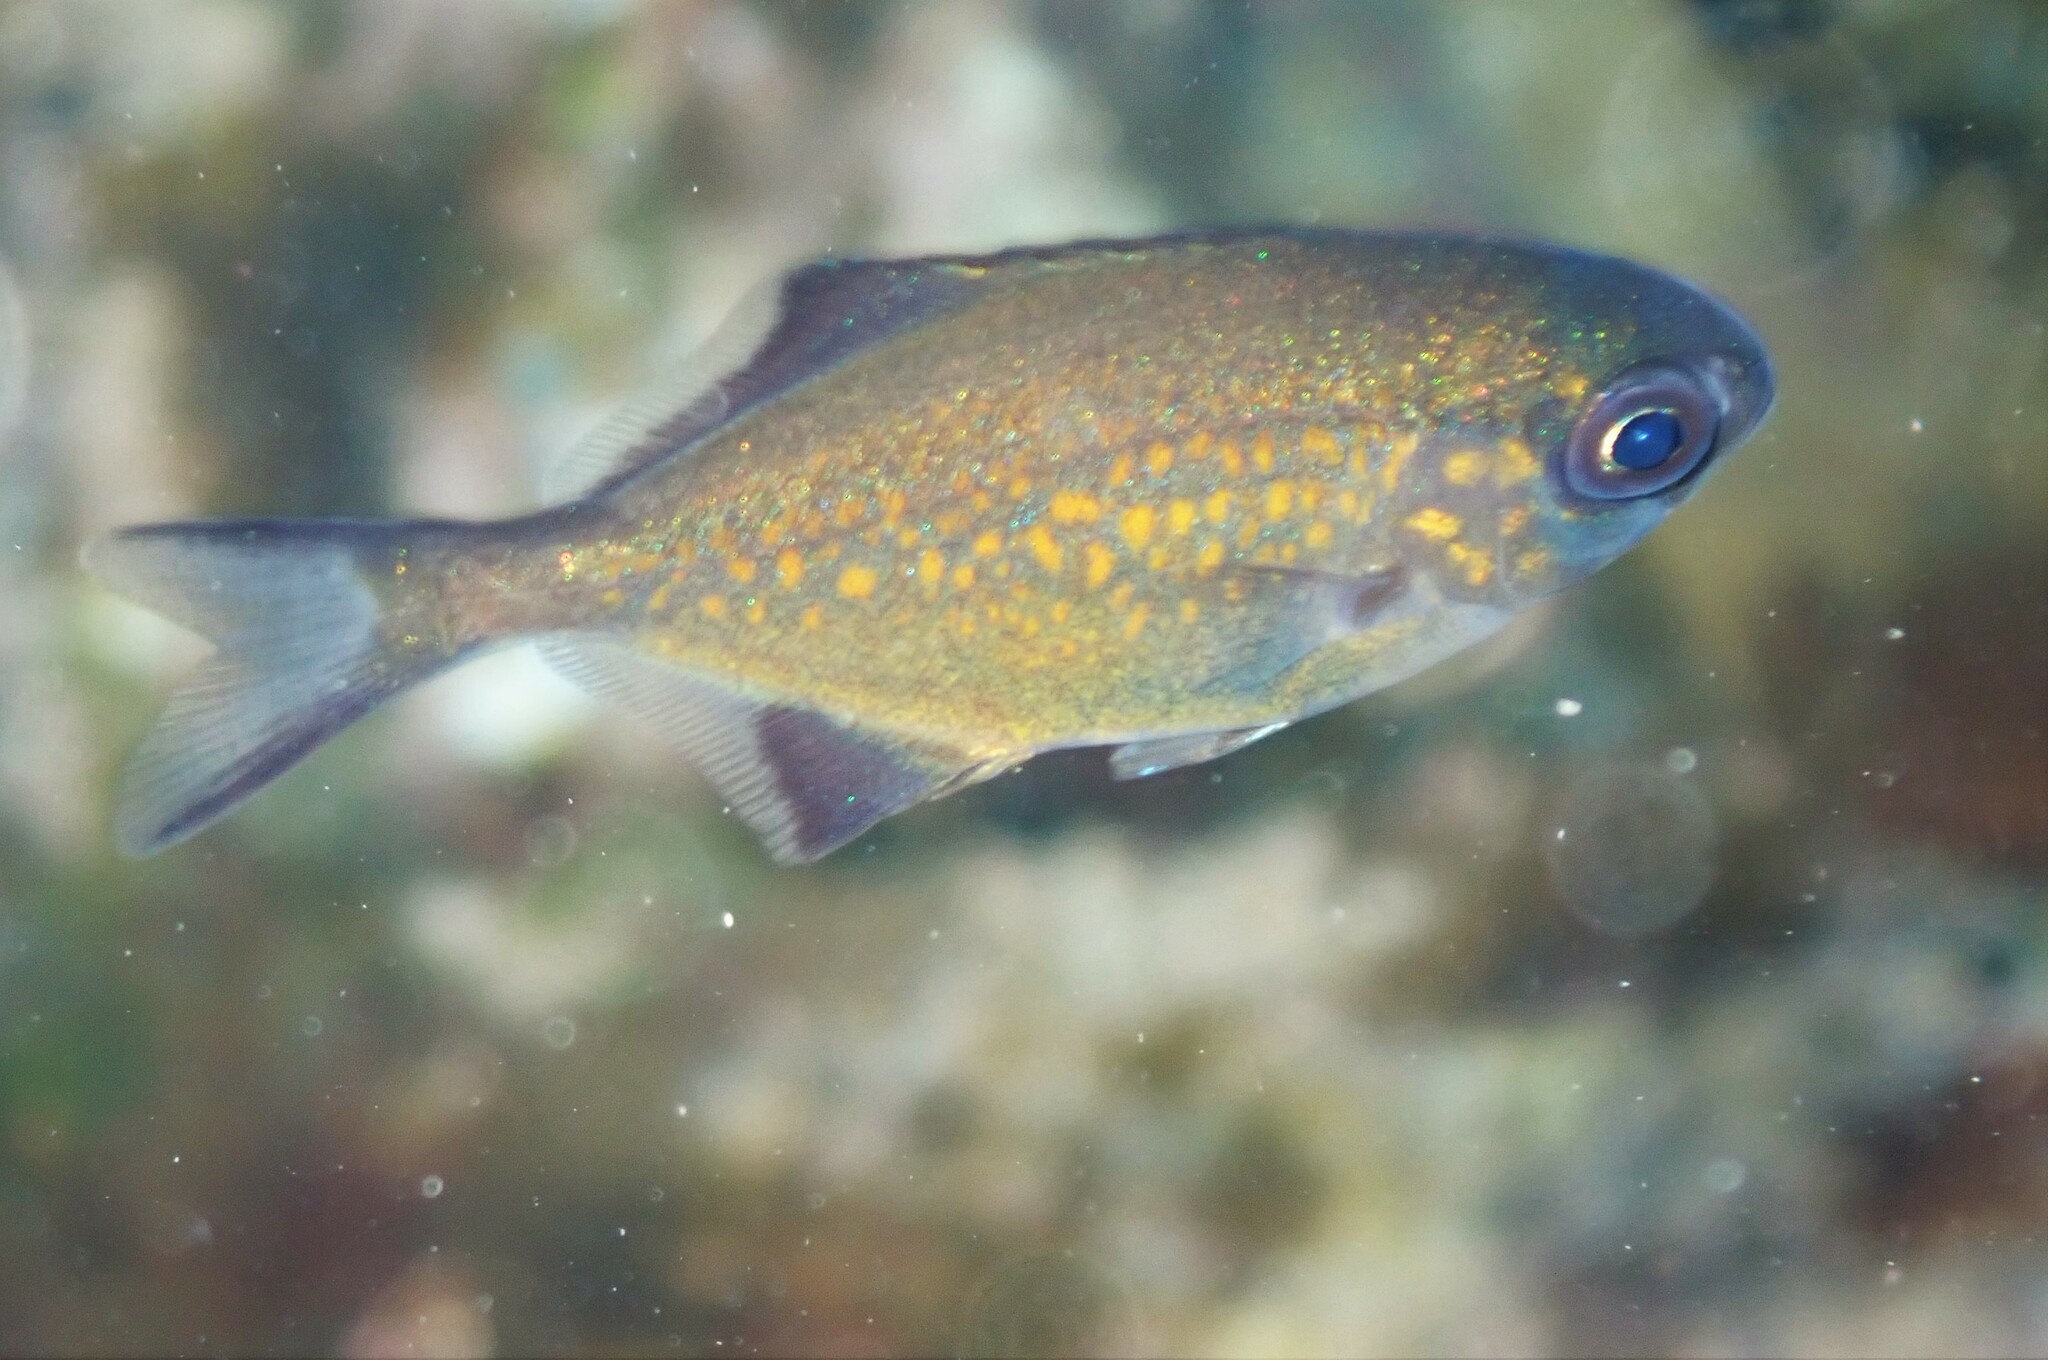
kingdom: Animalia
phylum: Chordata
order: Perciformes
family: Kyphosidae
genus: Scorpis
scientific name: Scorpis lineolata
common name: Sweep
